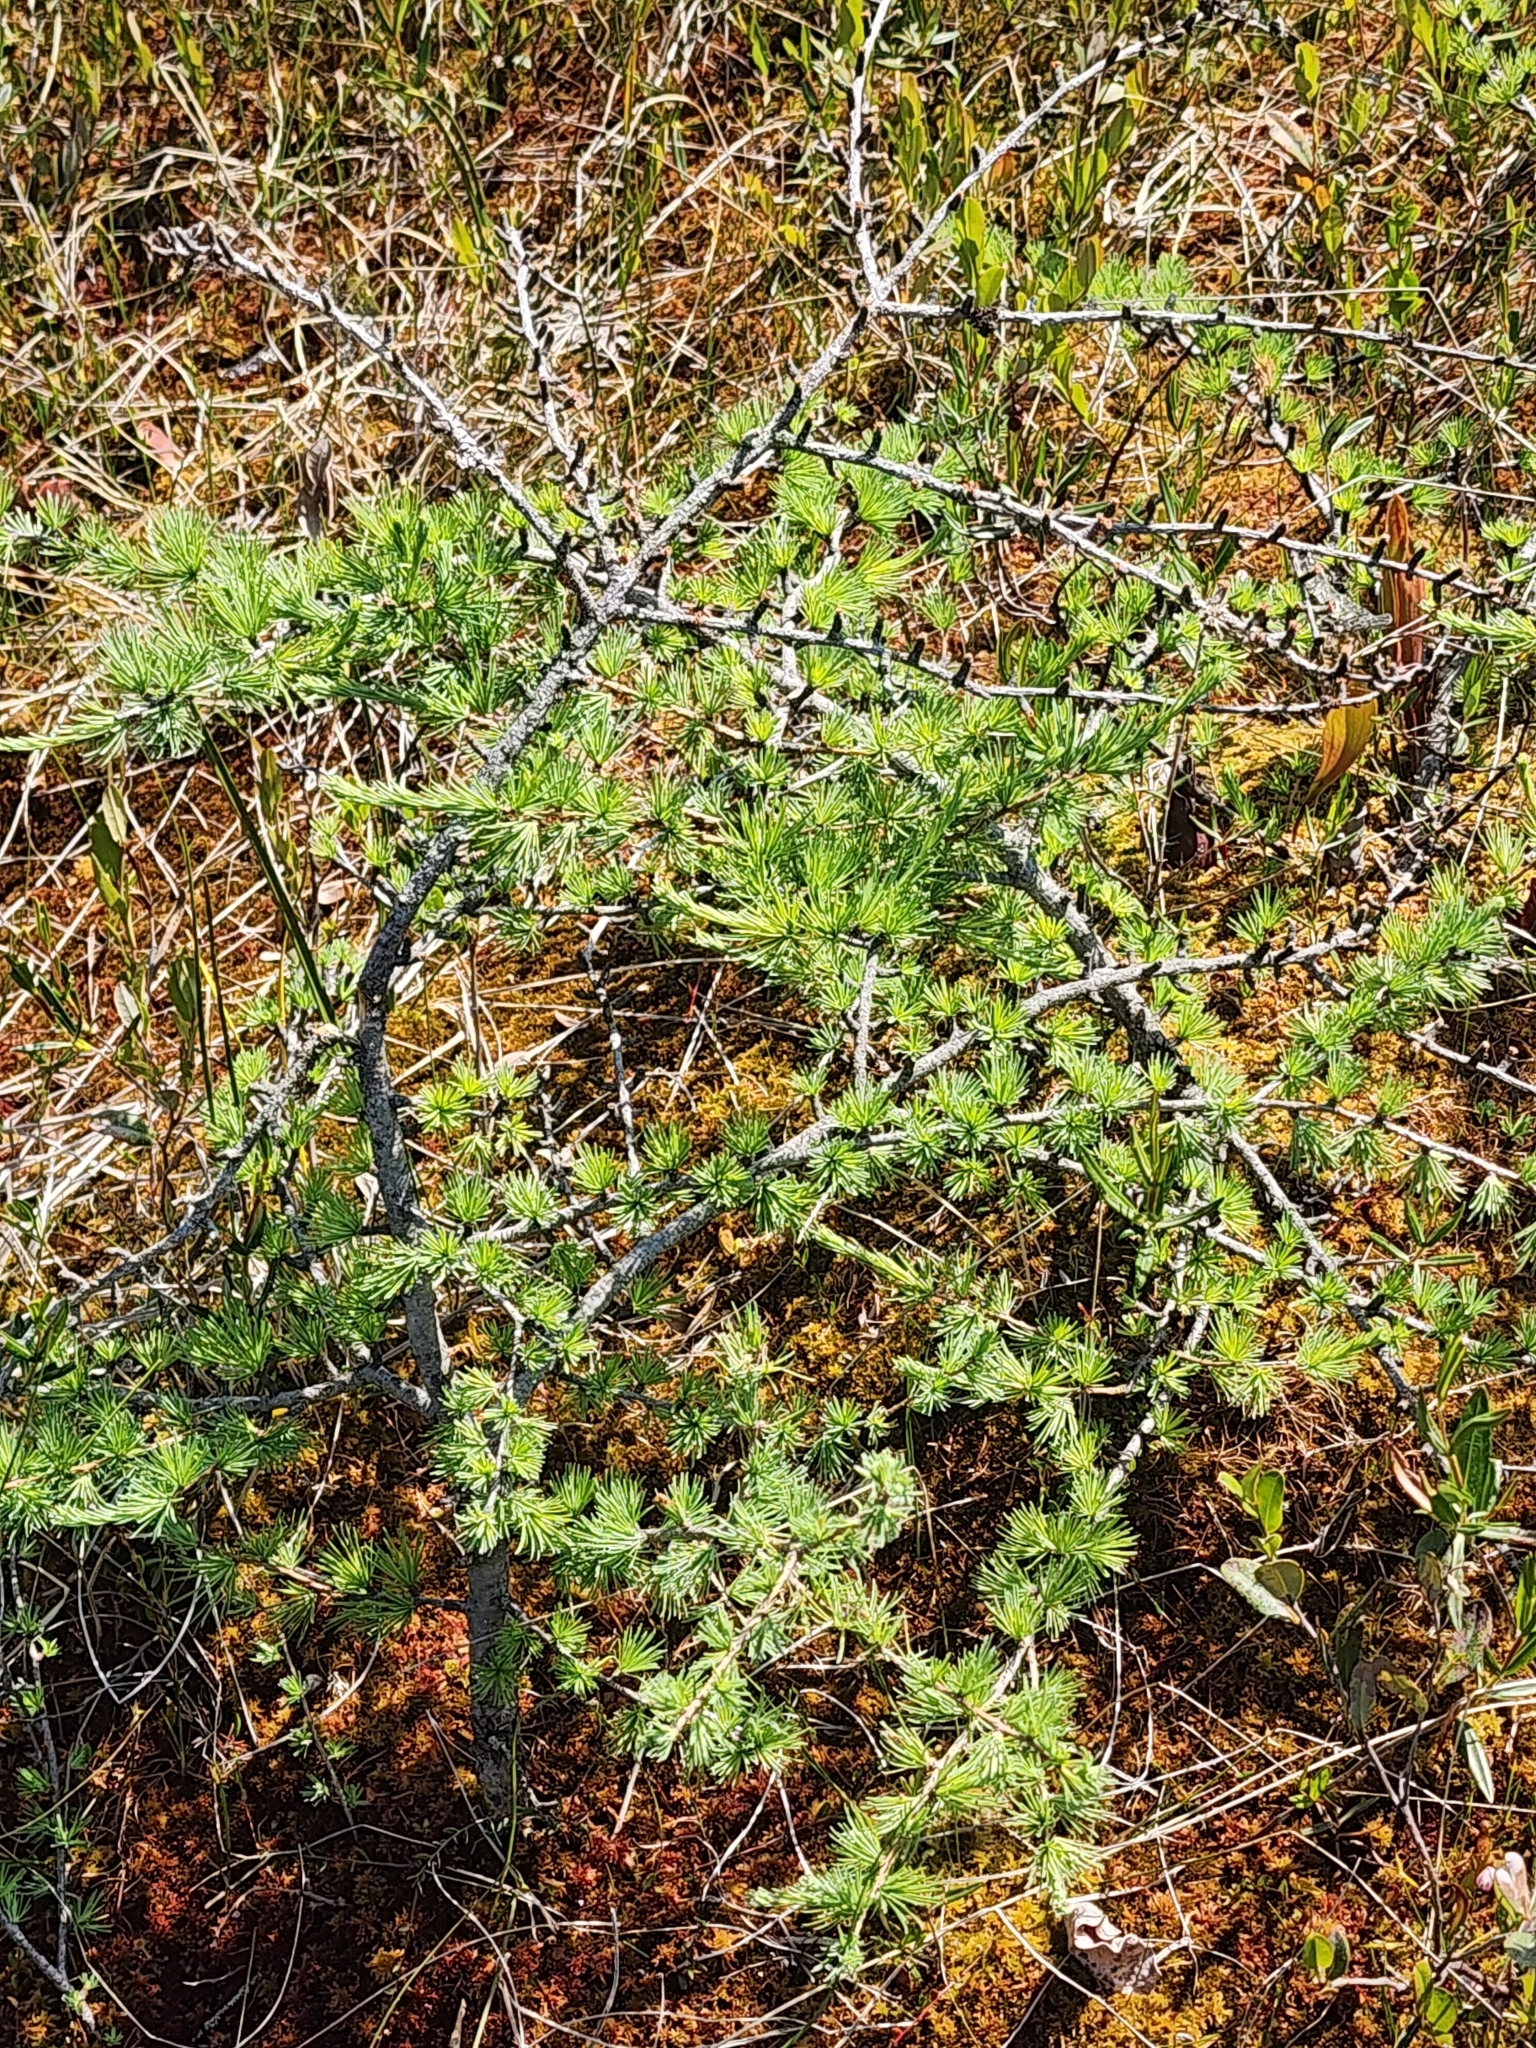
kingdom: Plantae
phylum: Tracheophyta
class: Pinopsida
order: Pinales
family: Pinaceae
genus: Larix
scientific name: Larix laricina
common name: American larch
